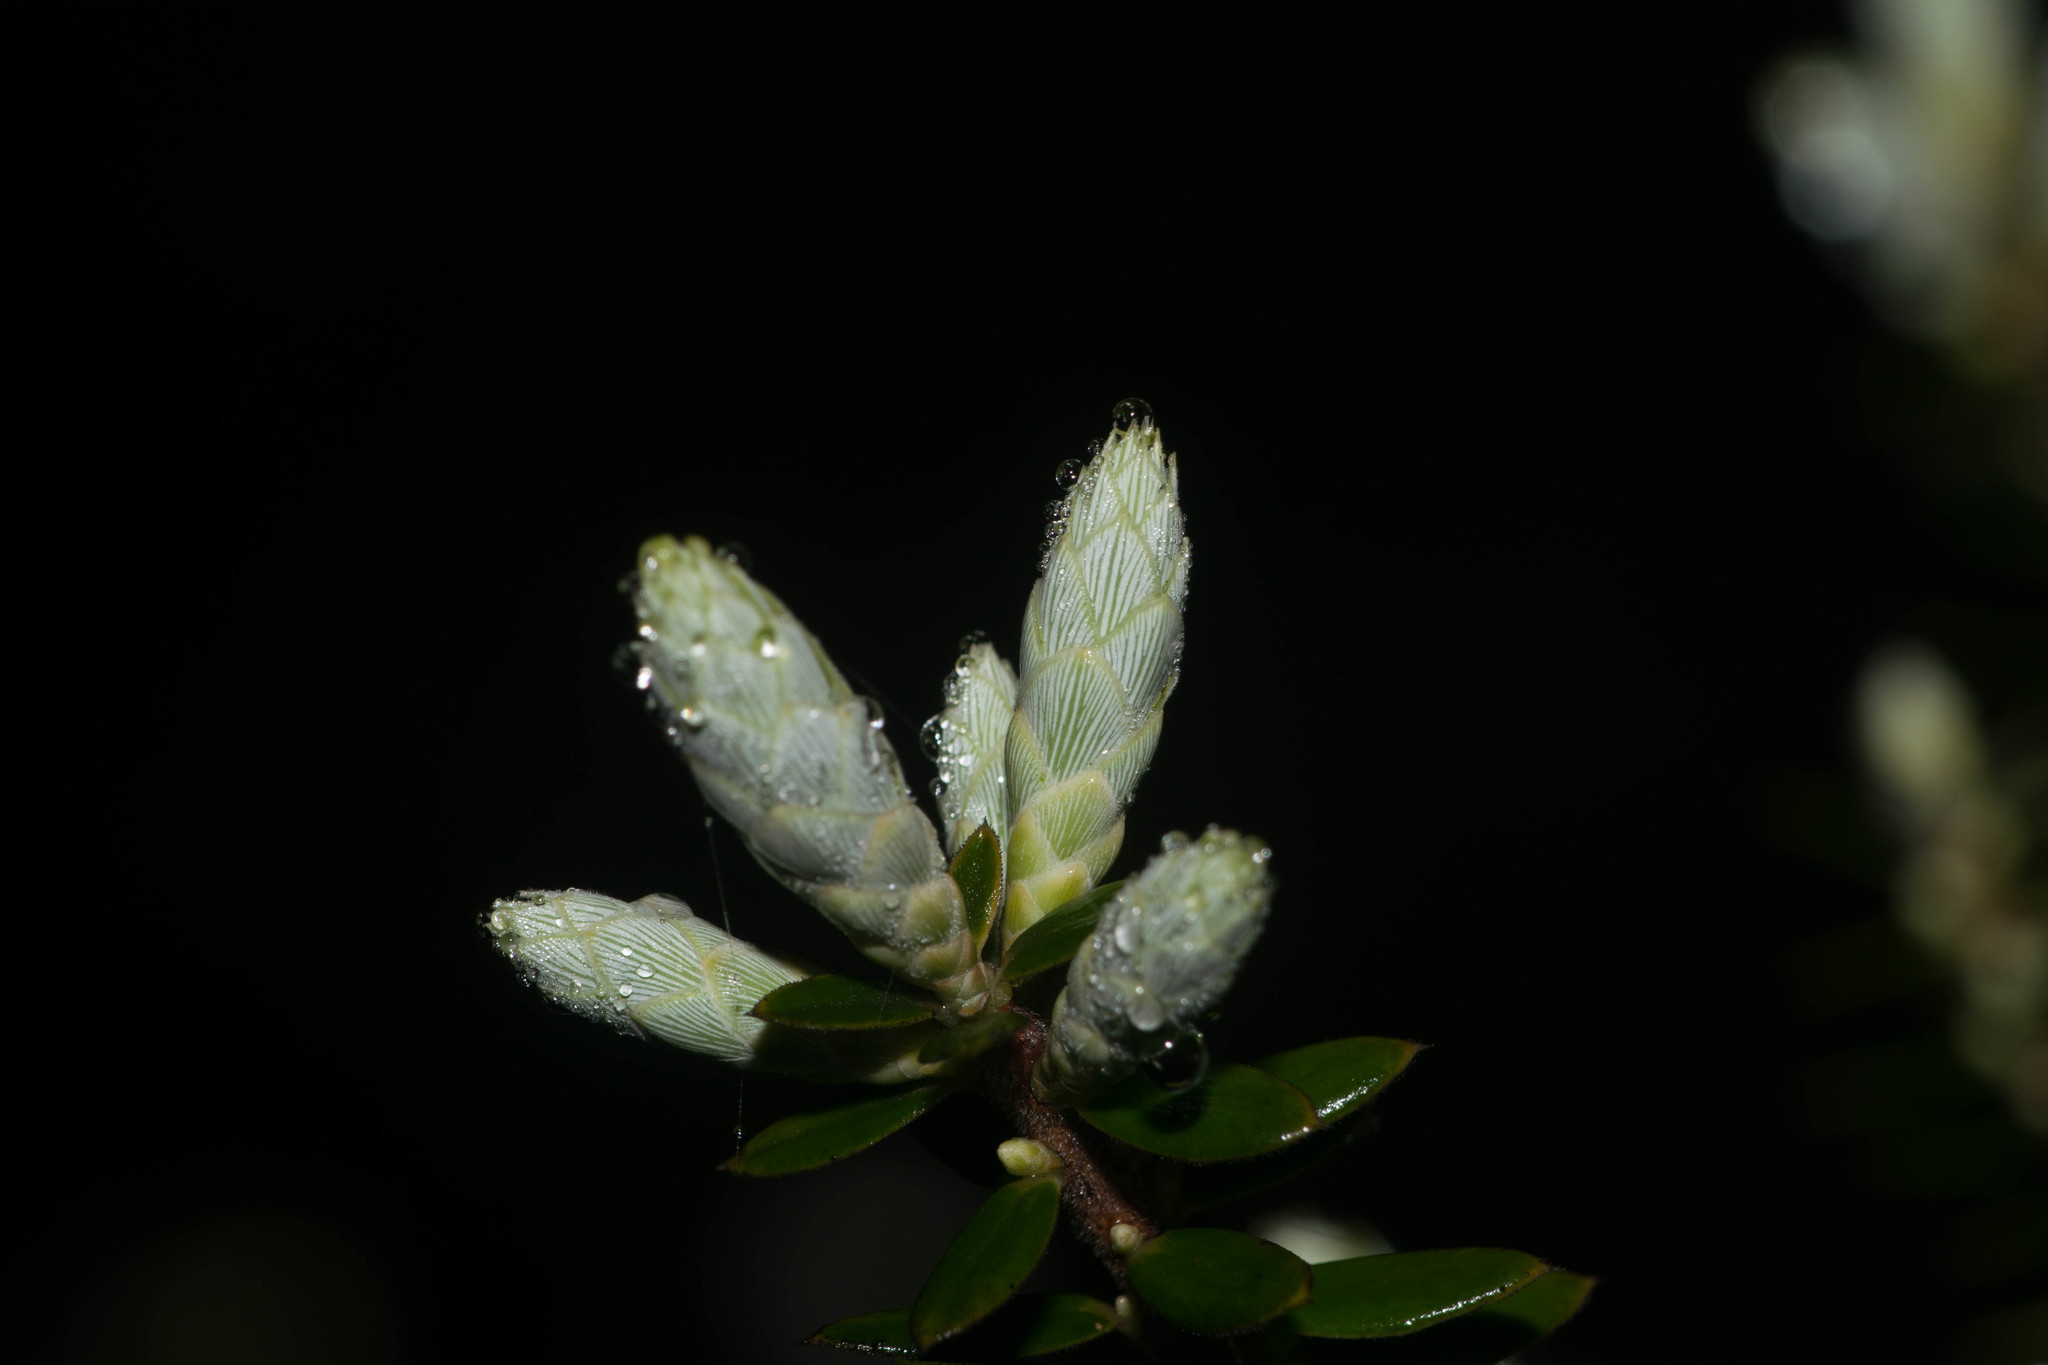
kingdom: Plantae
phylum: Tracheophyta
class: Magnoliopsida
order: Ericales
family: Ericaceae
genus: Leptecophylla
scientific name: Leptecophylla tameiameiae
